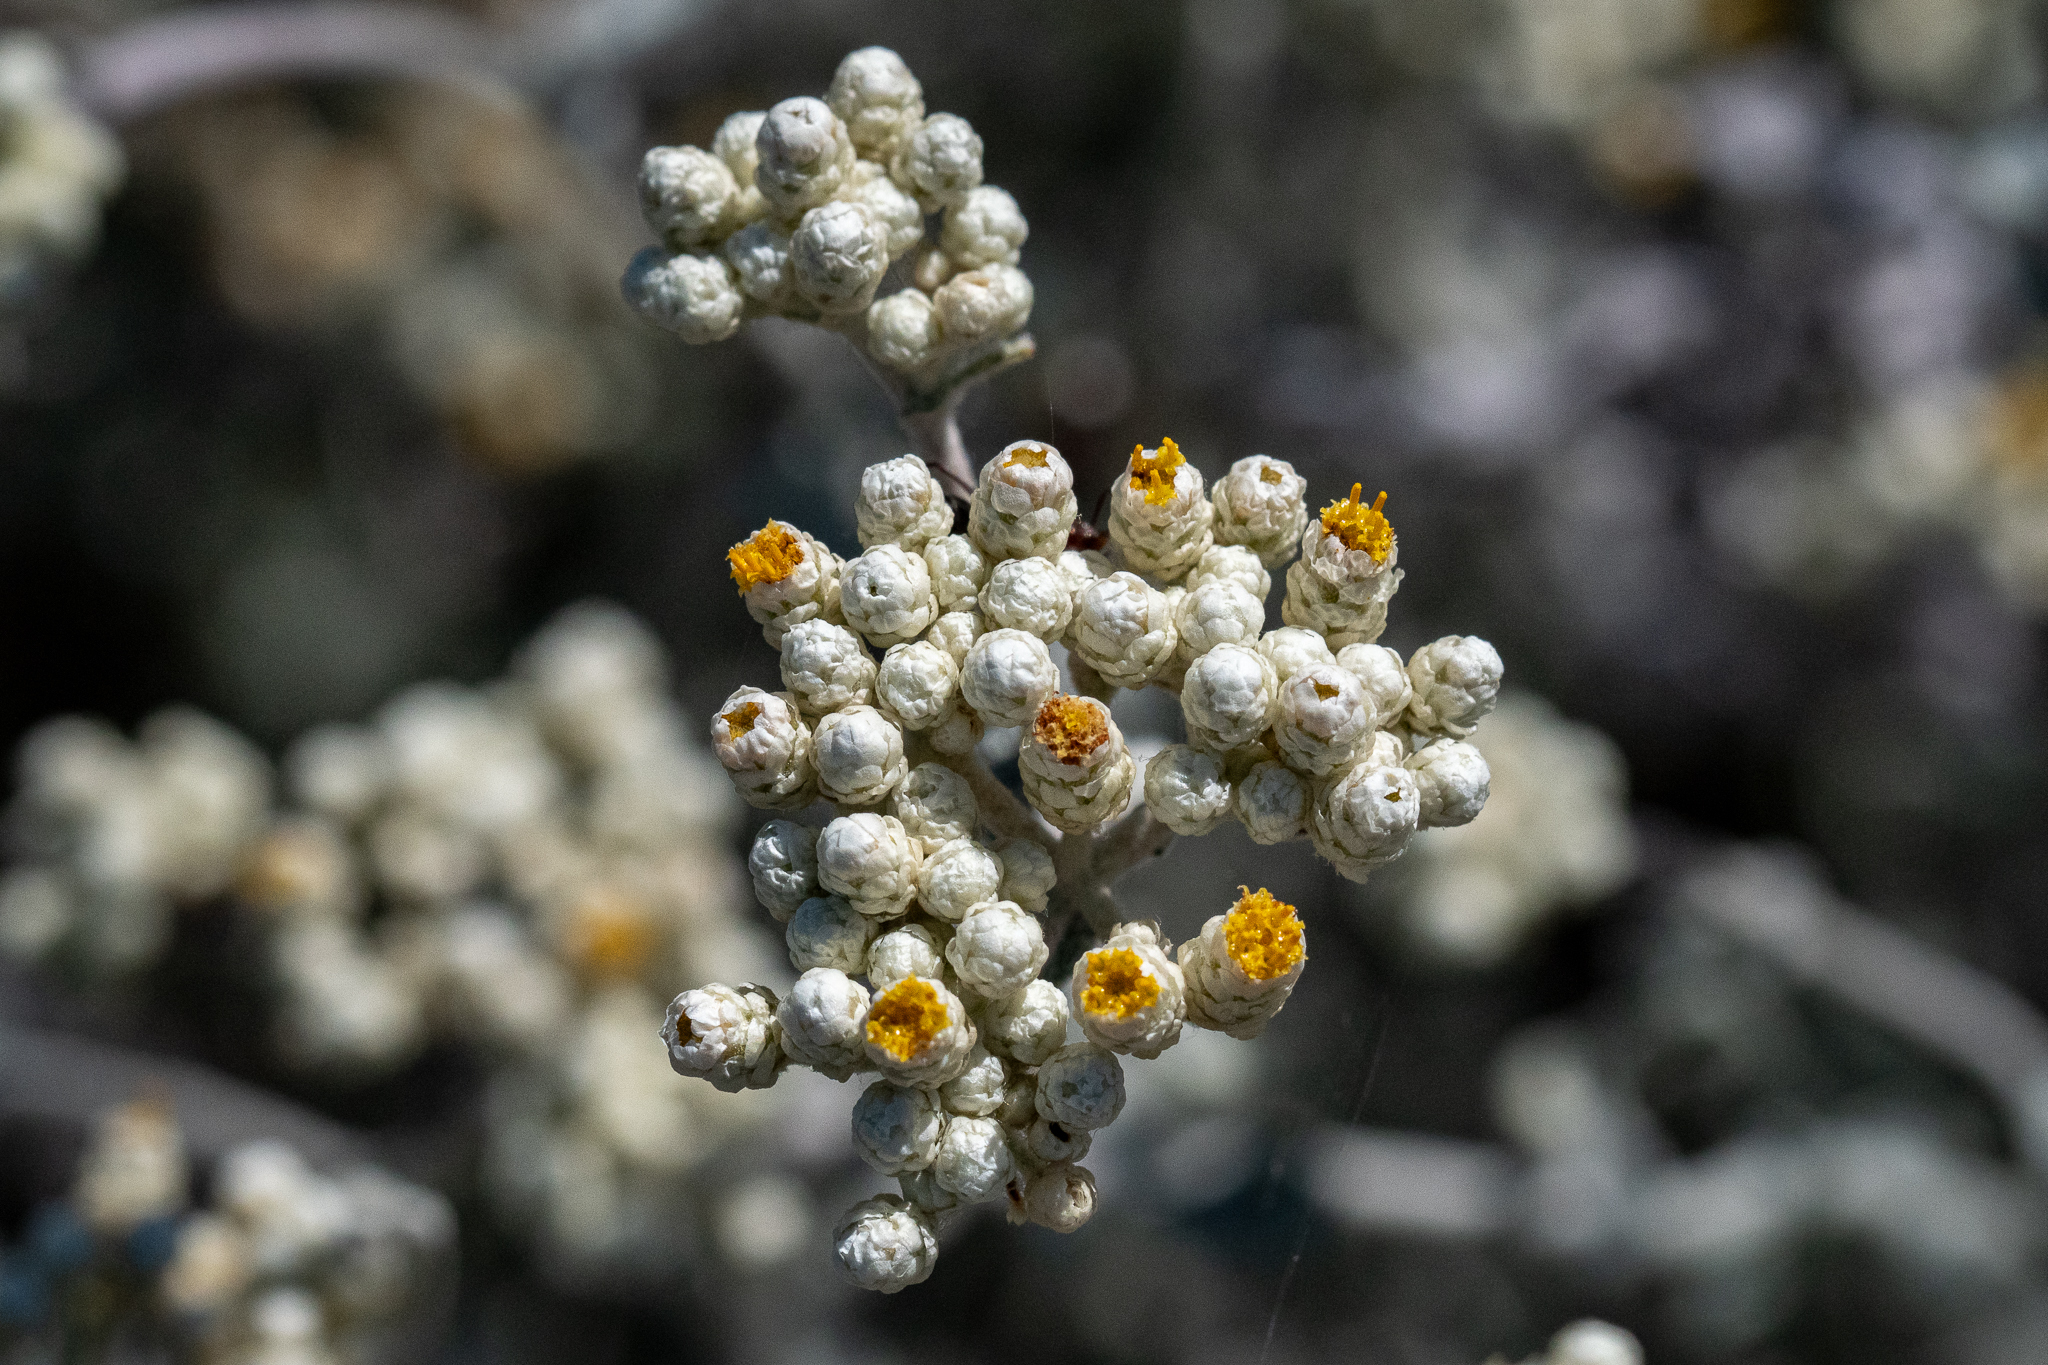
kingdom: Plantae
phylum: Tracheophyta
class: Magnoliopsida
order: Asterales
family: Asteraceae
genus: Helichrysum
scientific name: Helichrysum patulum
